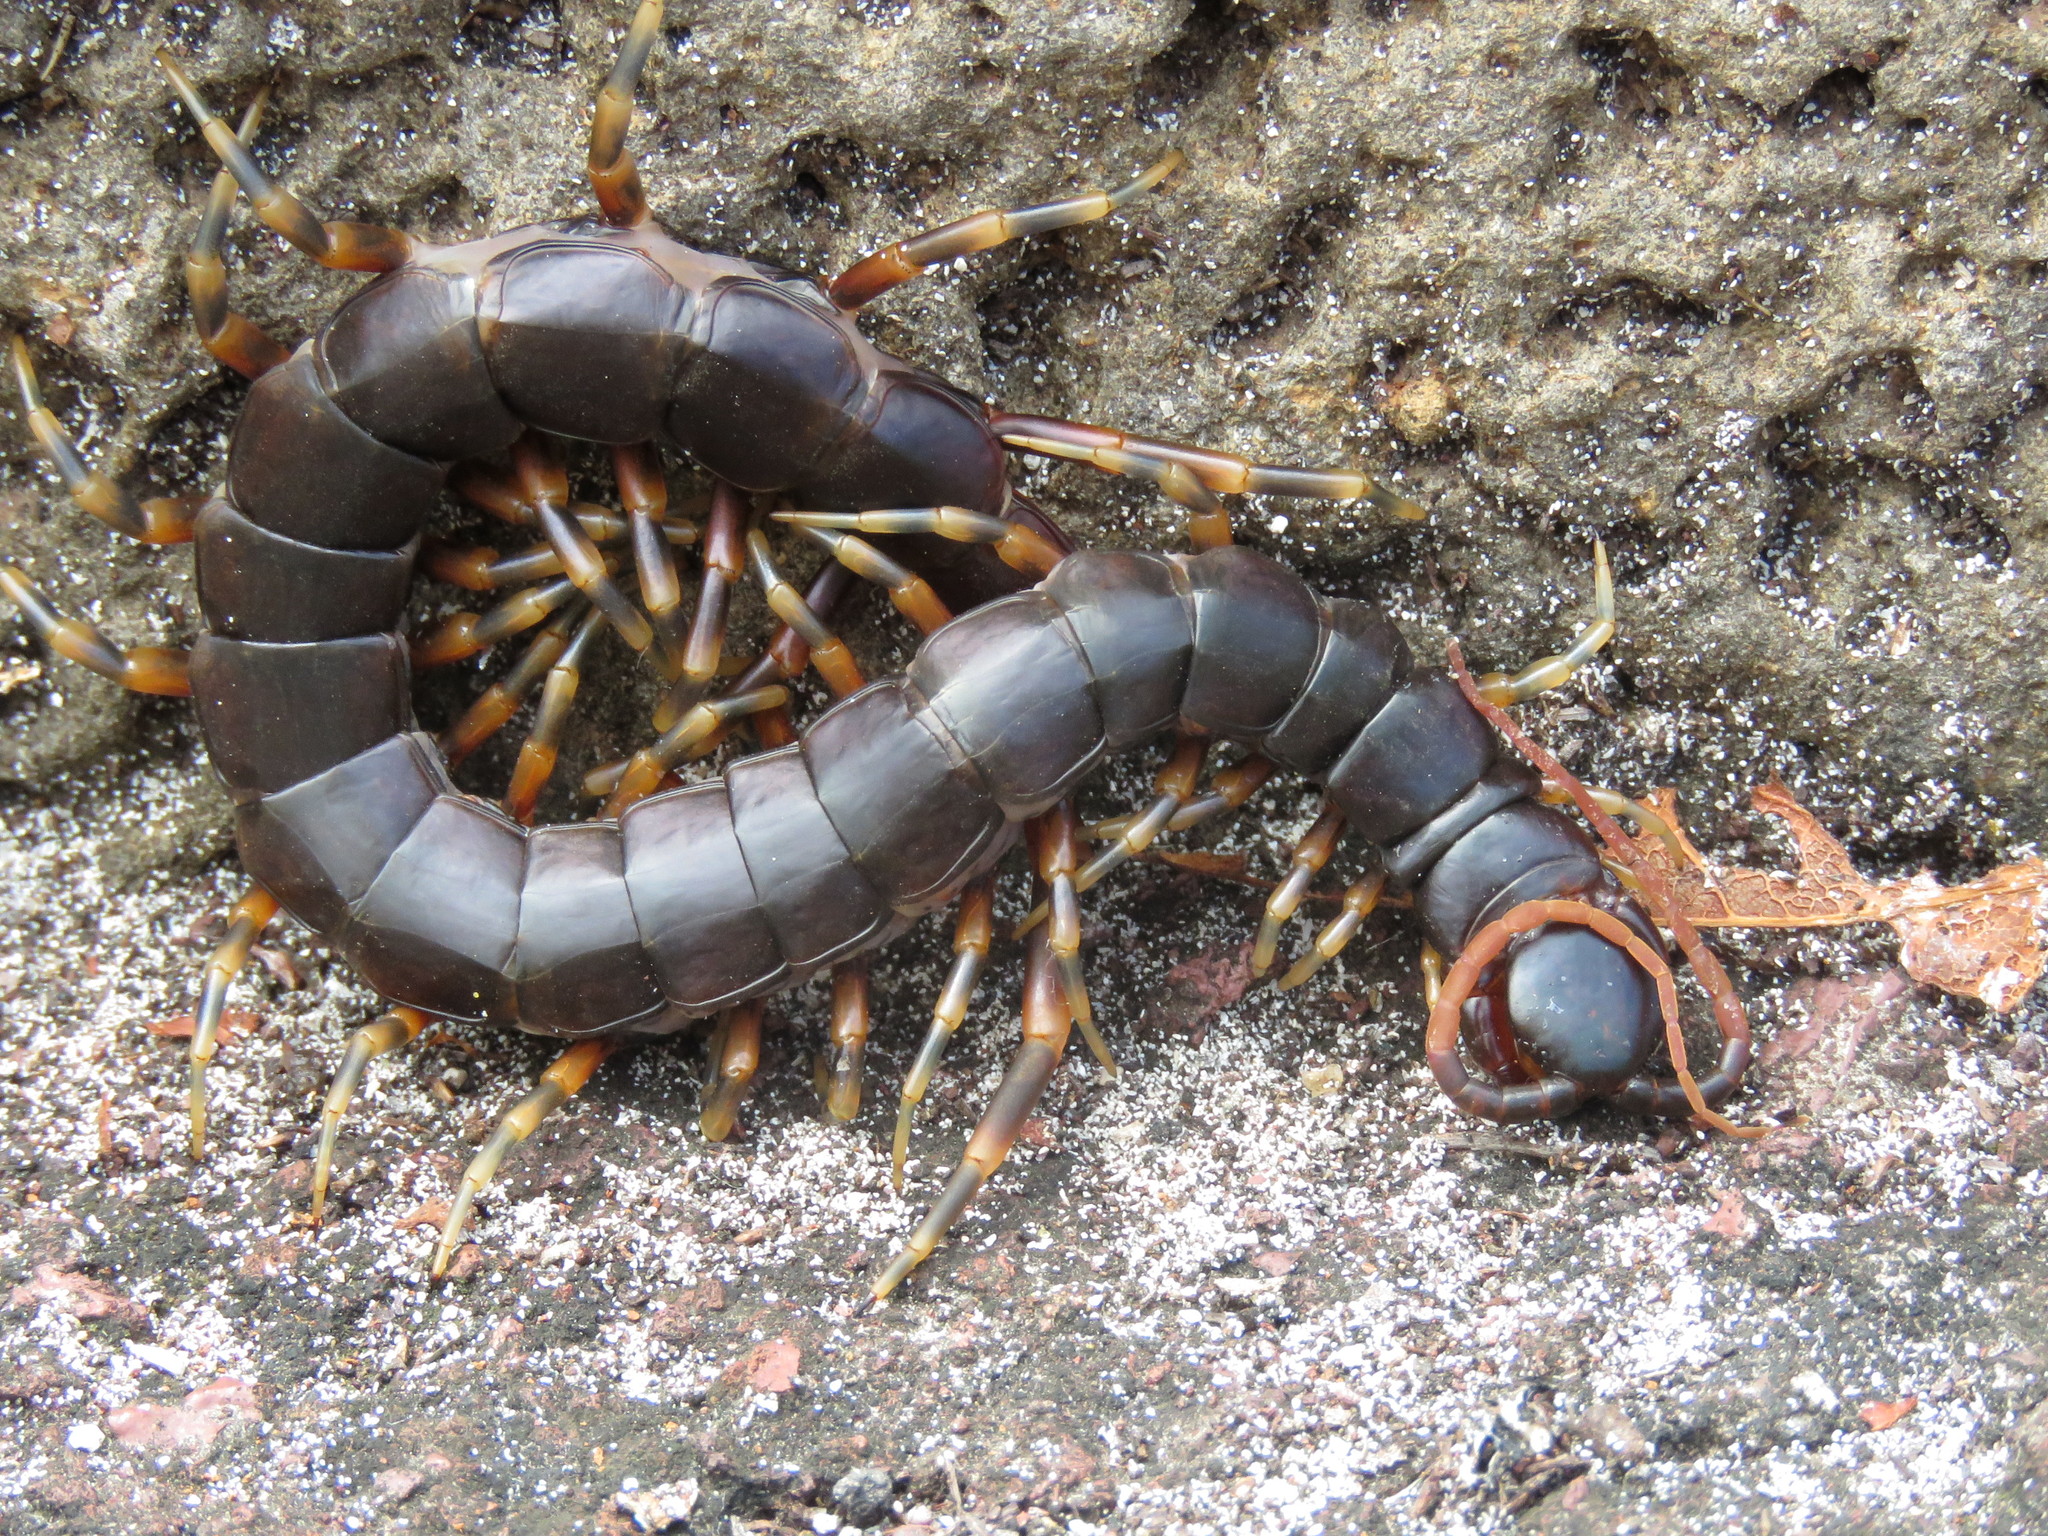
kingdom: Animalia
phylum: Arthropoda
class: Chilopoda
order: Scolopendromorpha
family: Scolopendridae
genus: Scolopendra
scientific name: Scolopendra galapagoensis
